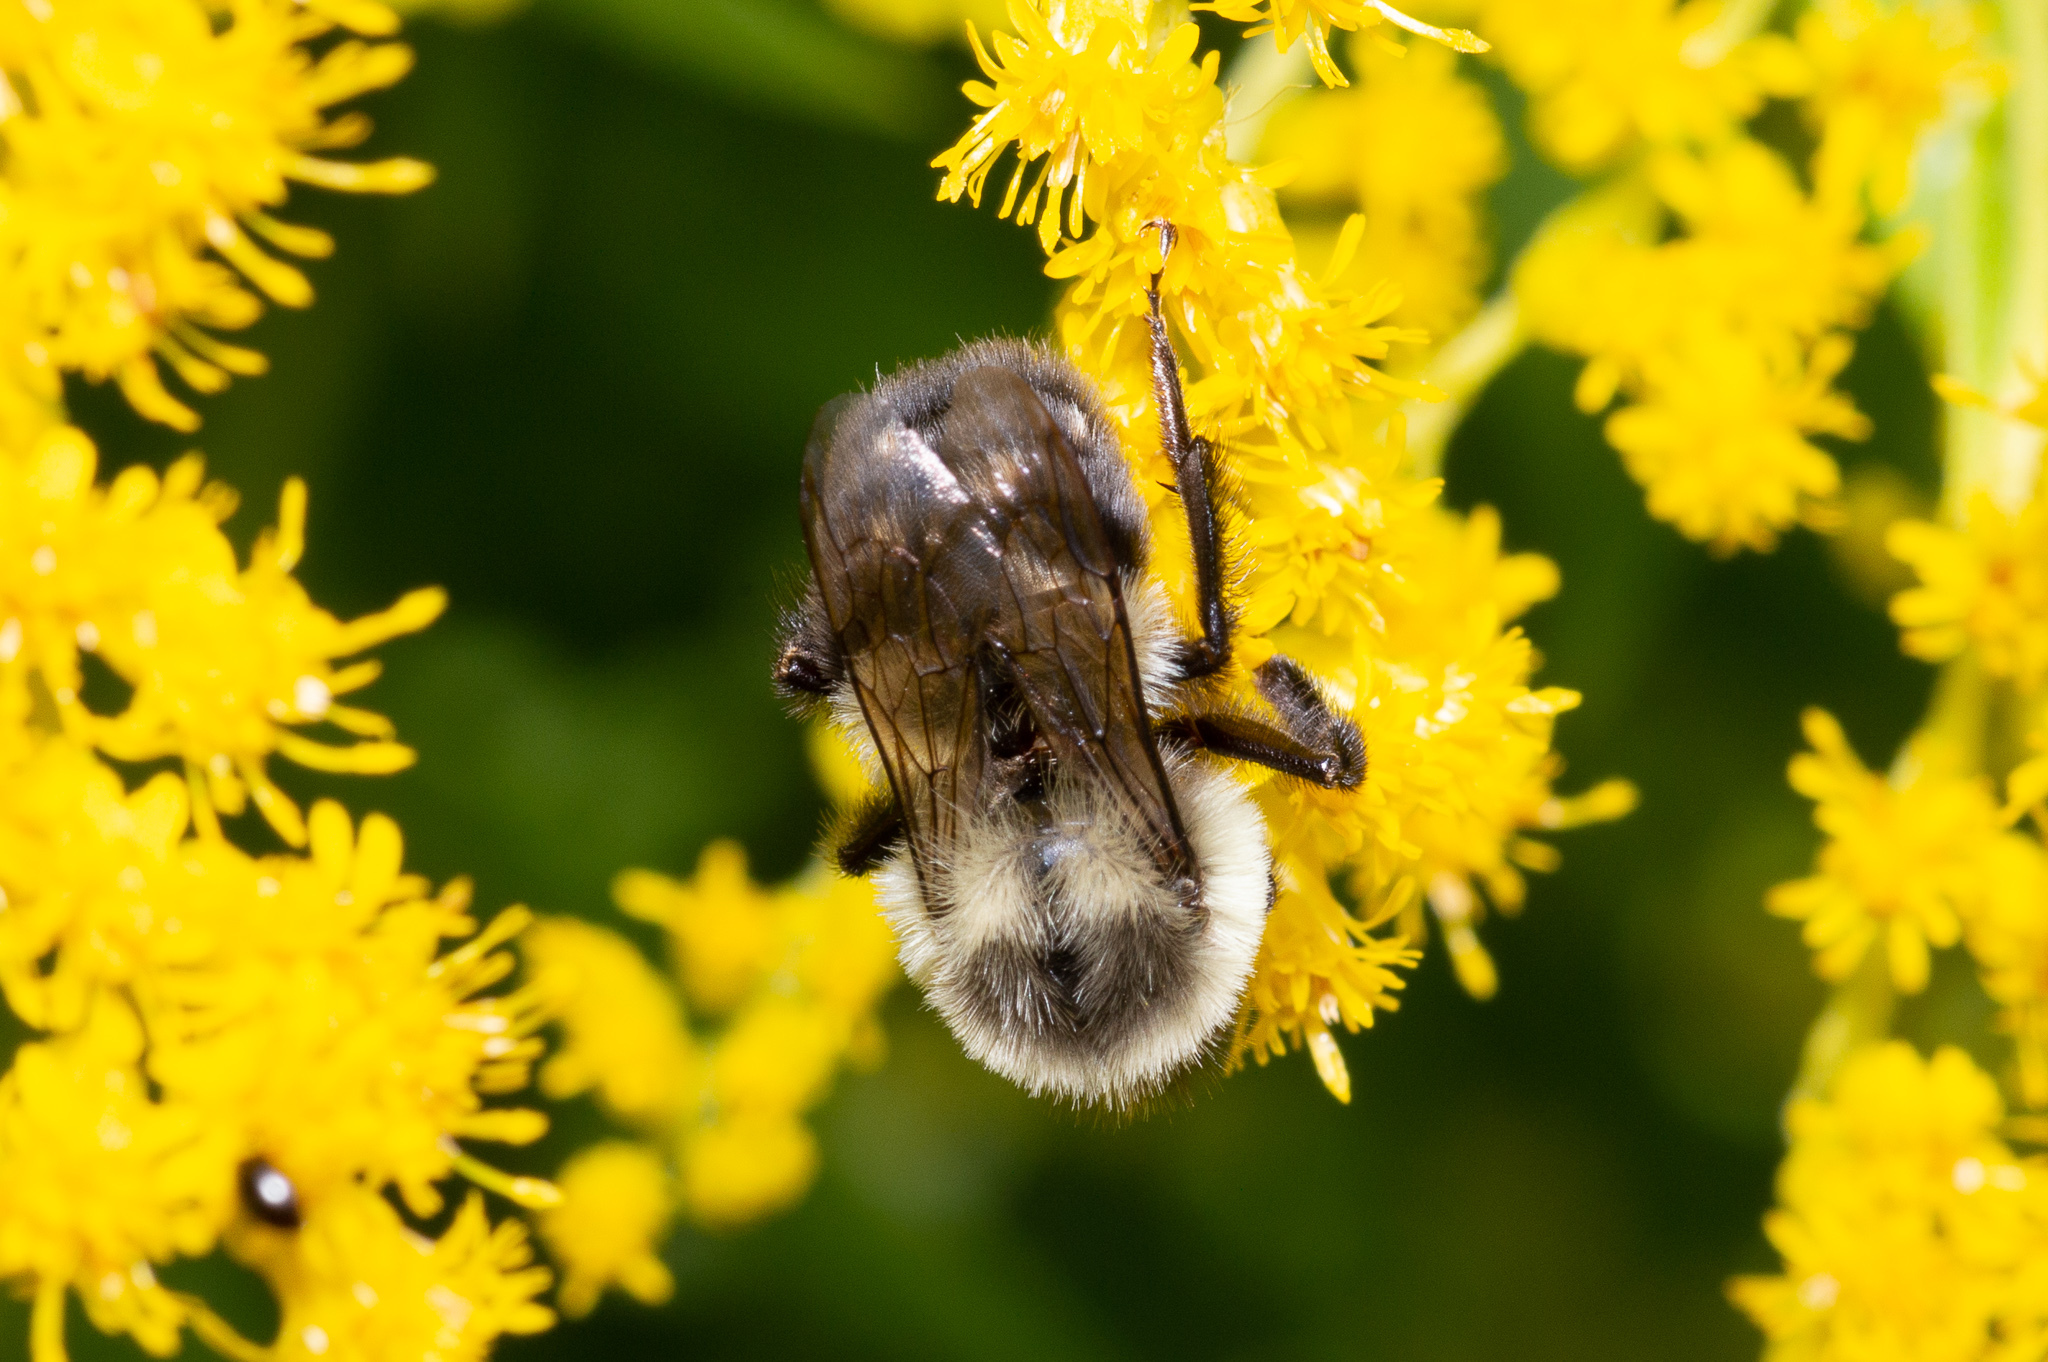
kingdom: Animalia
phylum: Arthropoda
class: Insecta
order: Hymenoptera
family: Apidae
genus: Bombus
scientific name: Bombus impatiens
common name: Common eastern bumble bee
